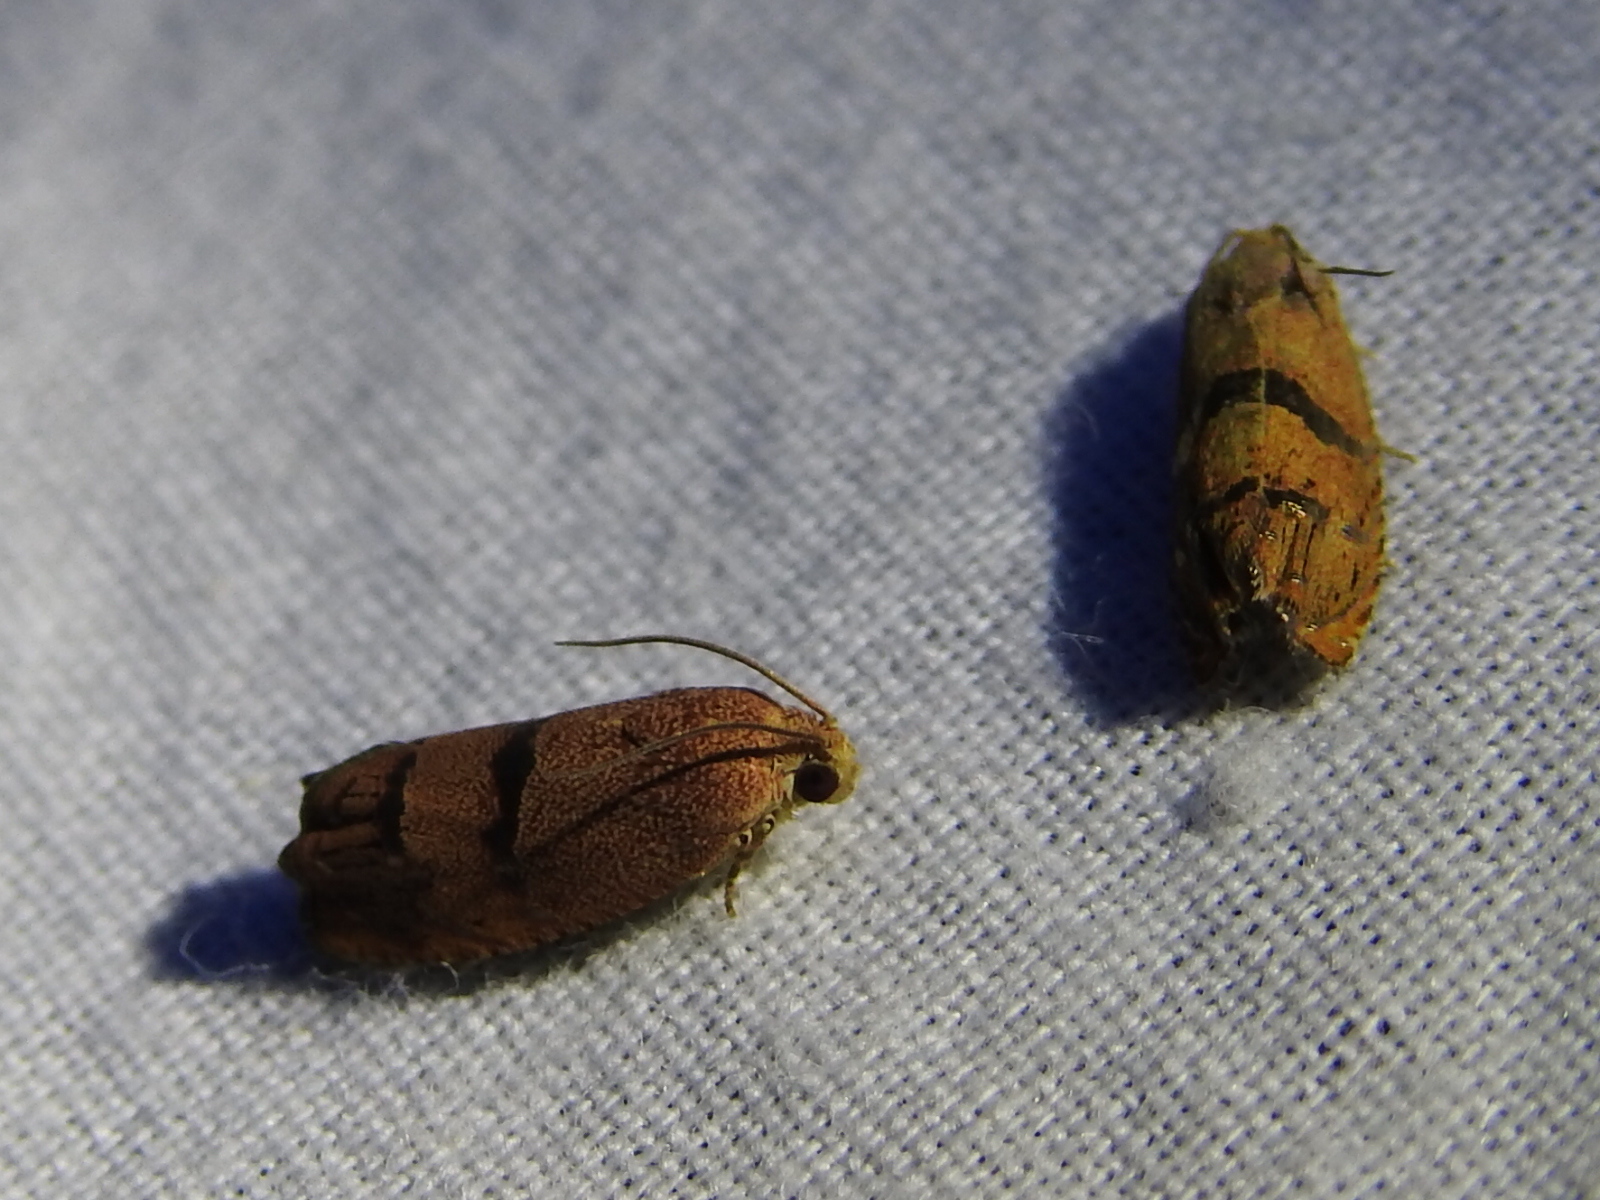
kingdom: Animalia
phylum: Arthropoda
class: Insecta
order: Lepidoptera
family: Tortricidae
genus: Cydia
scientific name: Cydia latiferreana
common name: Filbertworm moth
